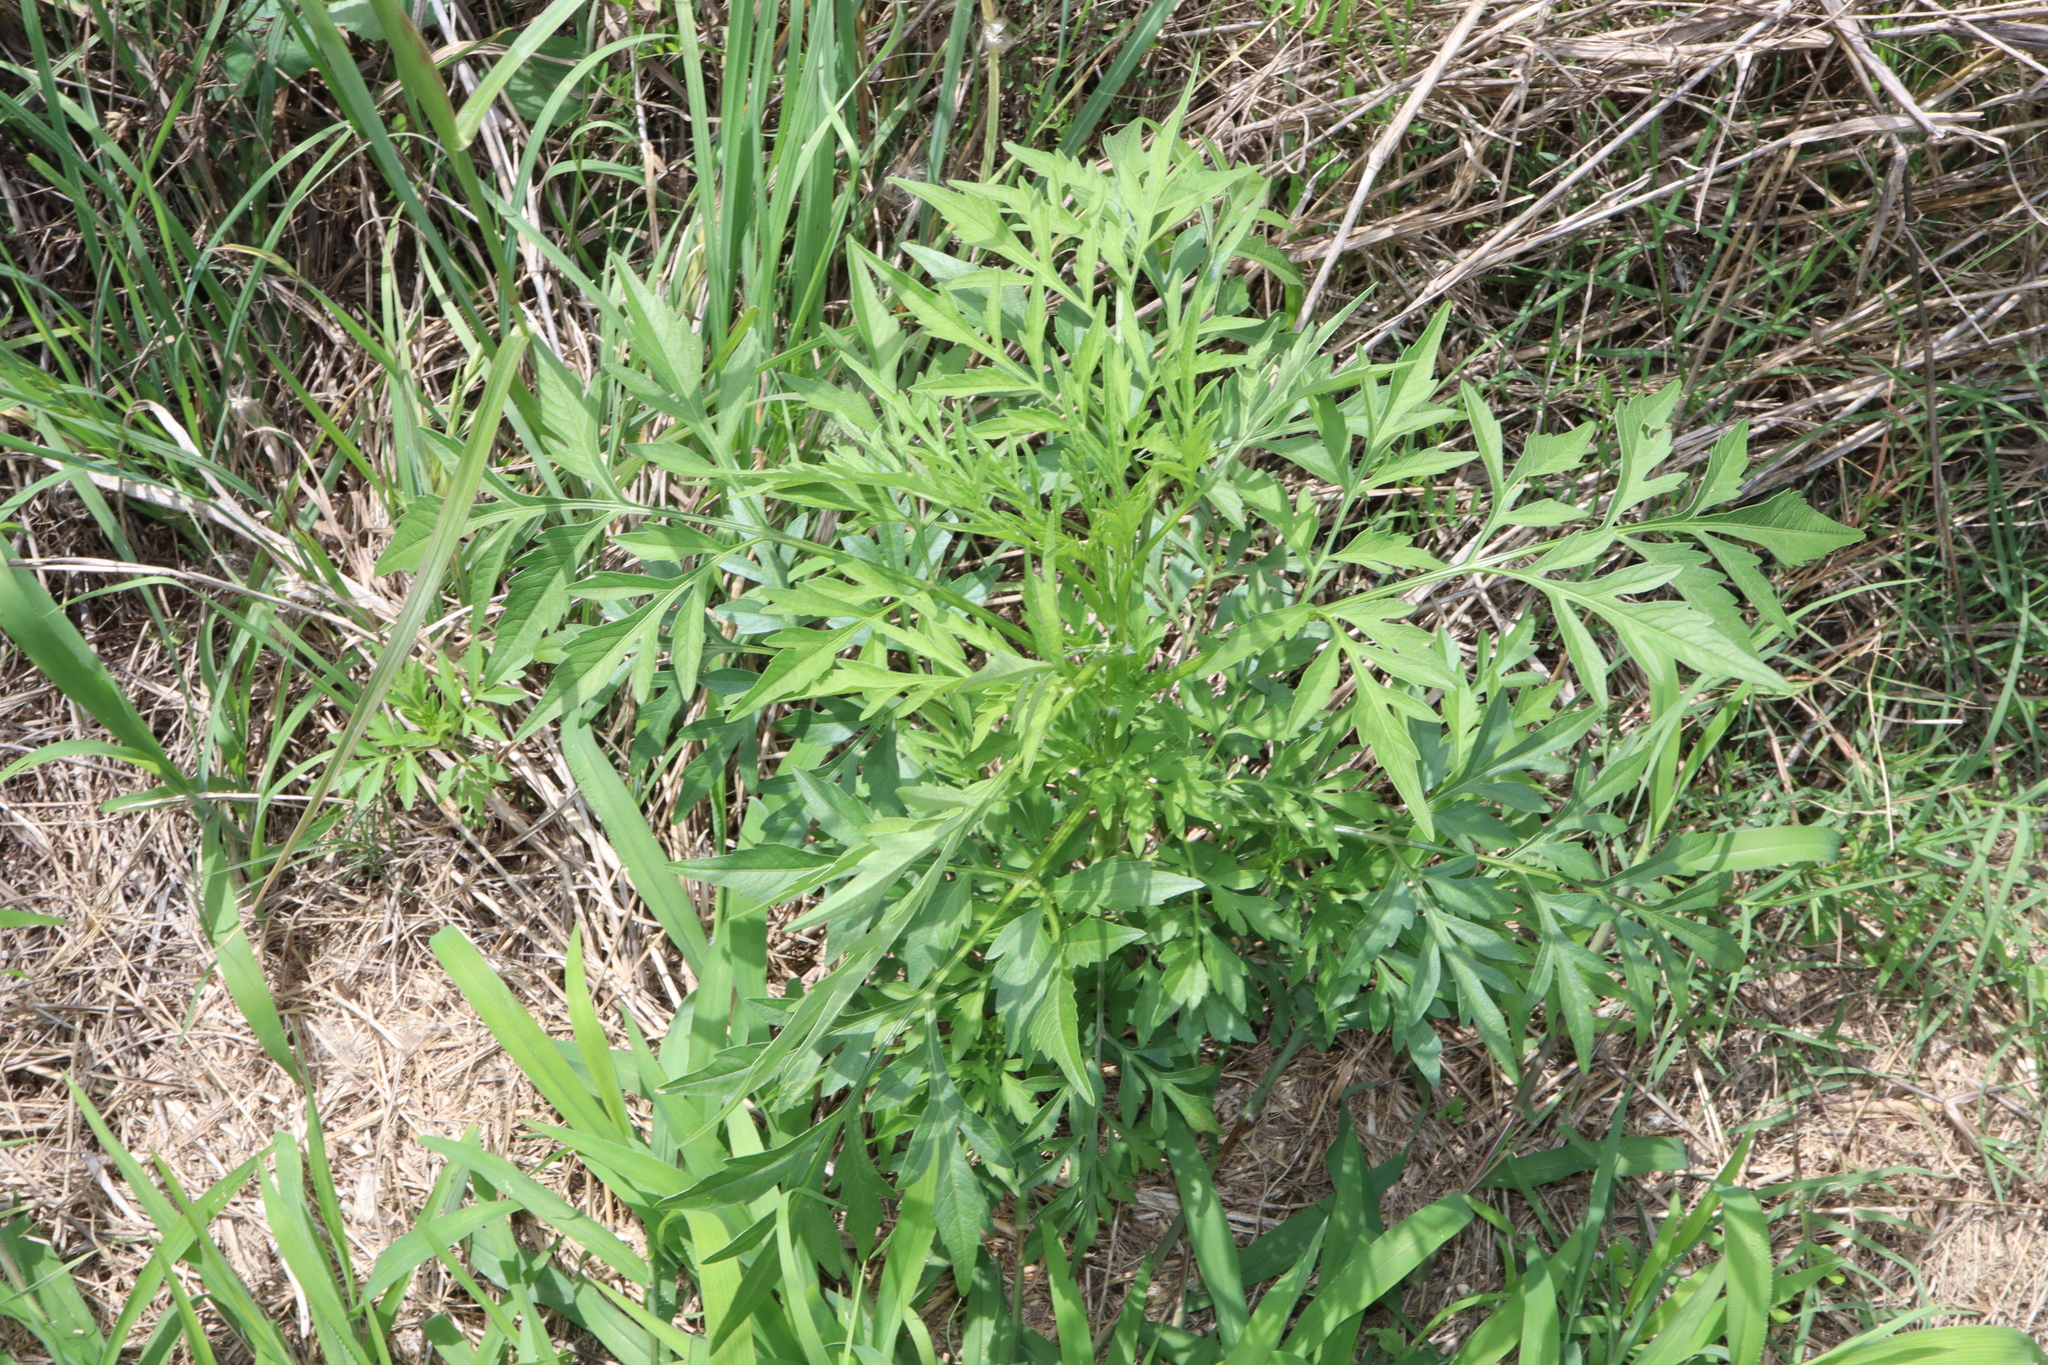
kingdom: Plantae
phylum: Tracheophyta
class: Magnoliopsida
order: Asterales
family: Asteraceae
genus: Bidens
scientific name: Bidens bipinnata
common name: Spanish-needles
